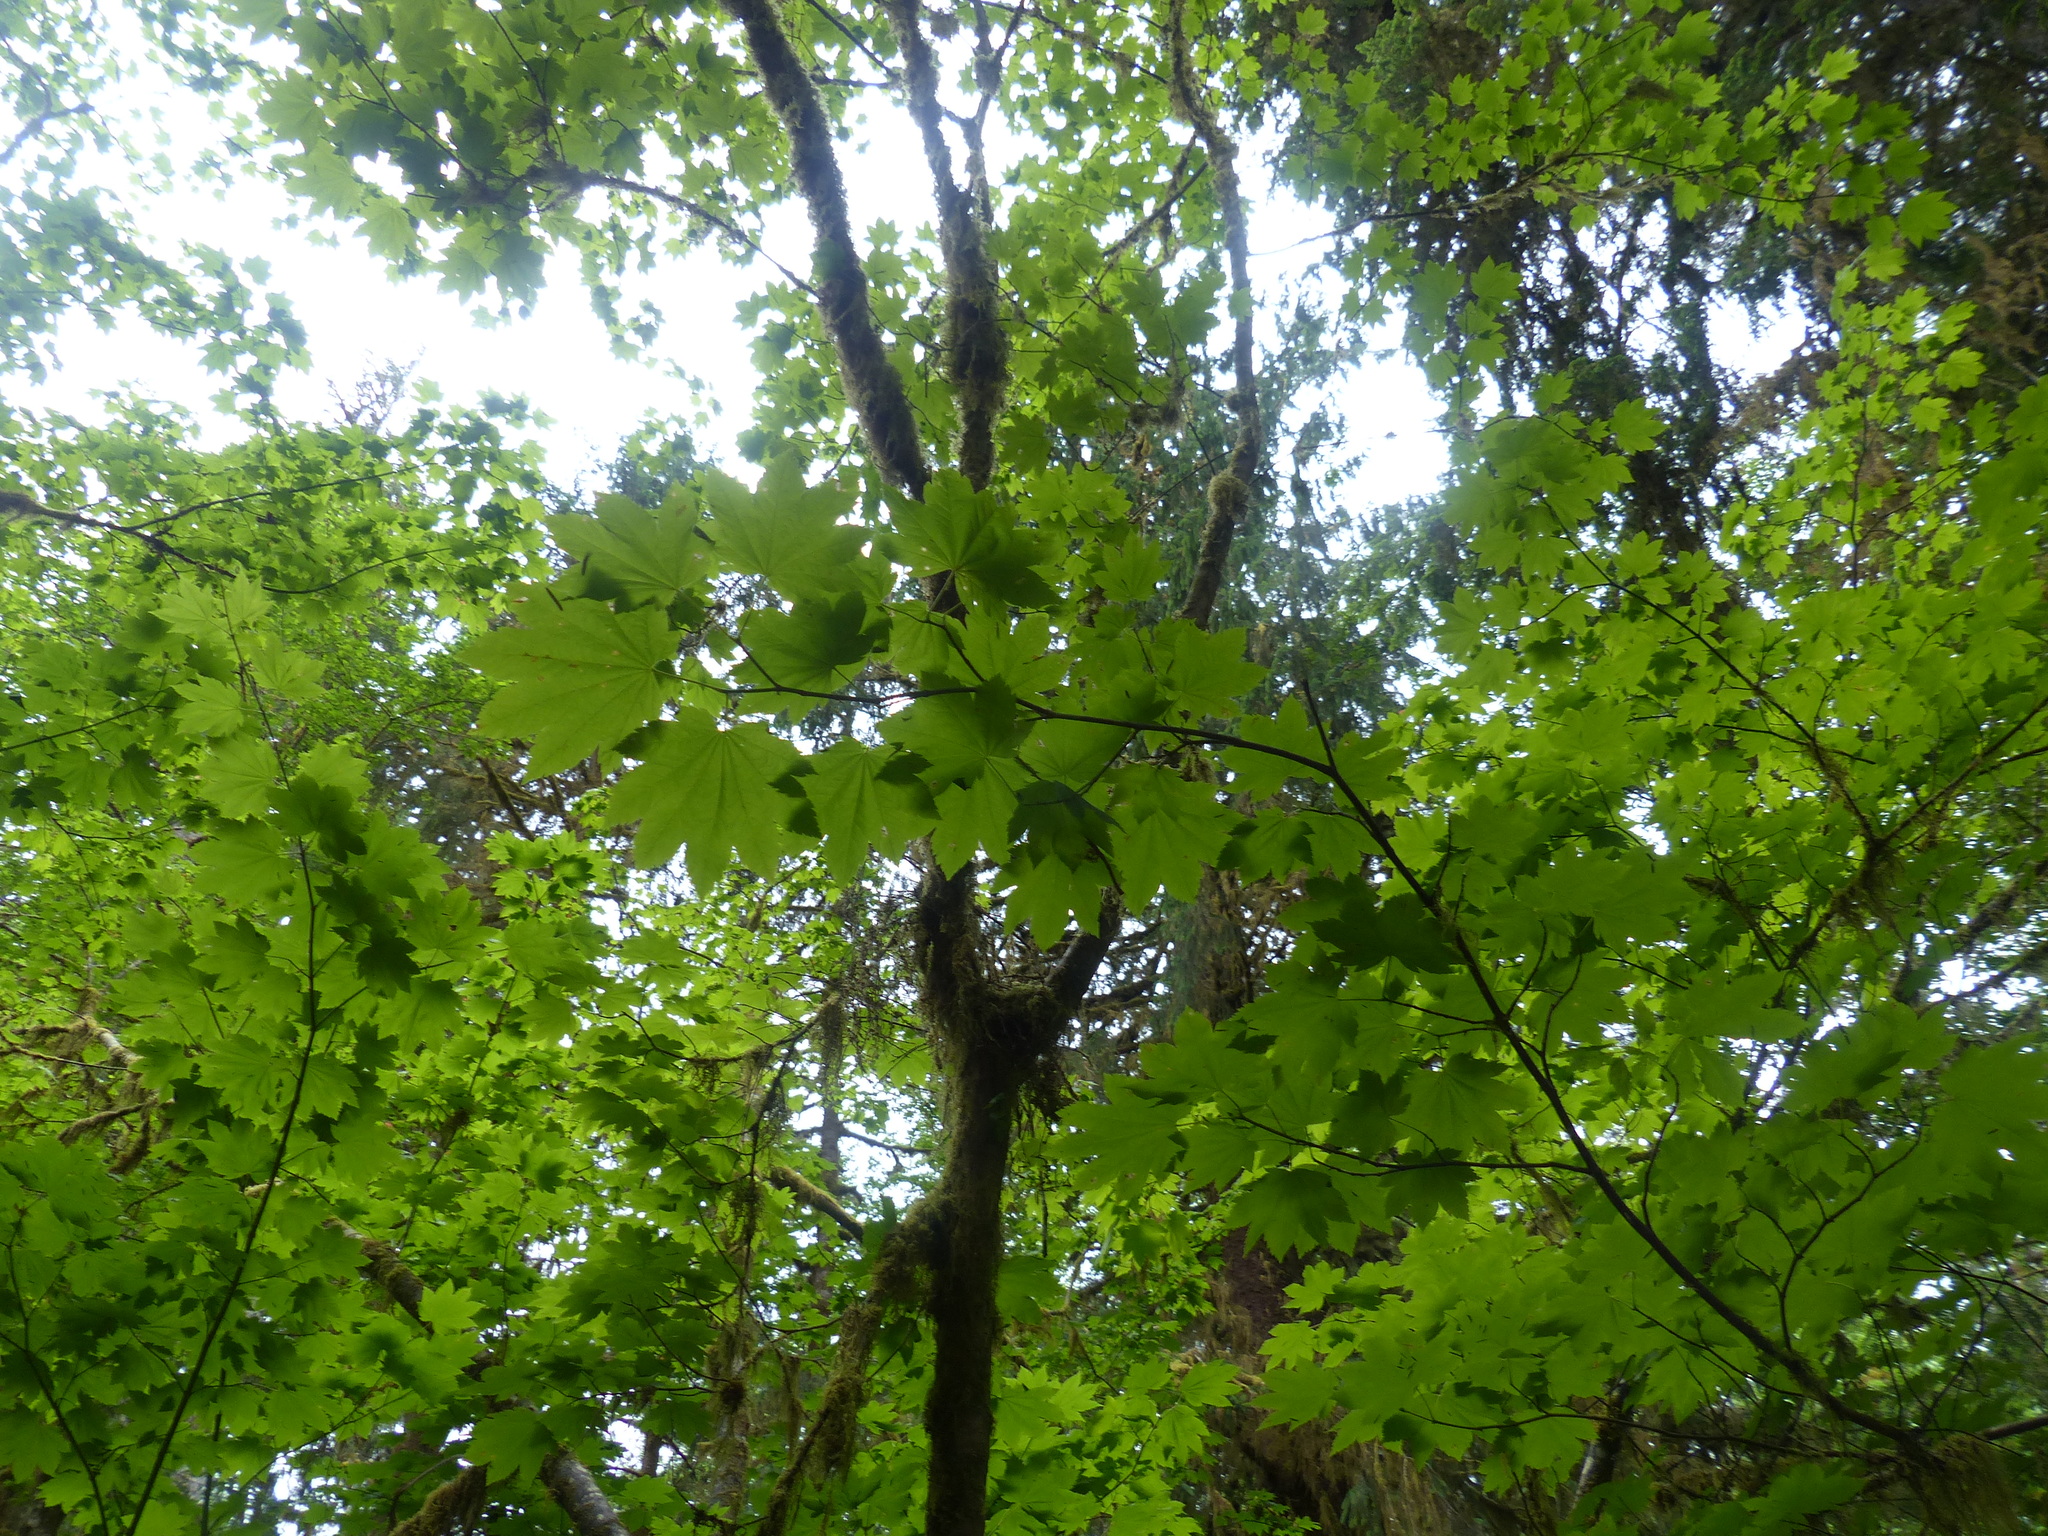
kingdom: Plantae
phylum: Tracheophyta
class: Magnoliopsida
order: Sapindales
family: Sapindaceae
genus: Acer
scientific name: Acer circinatum
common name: Vine maple
